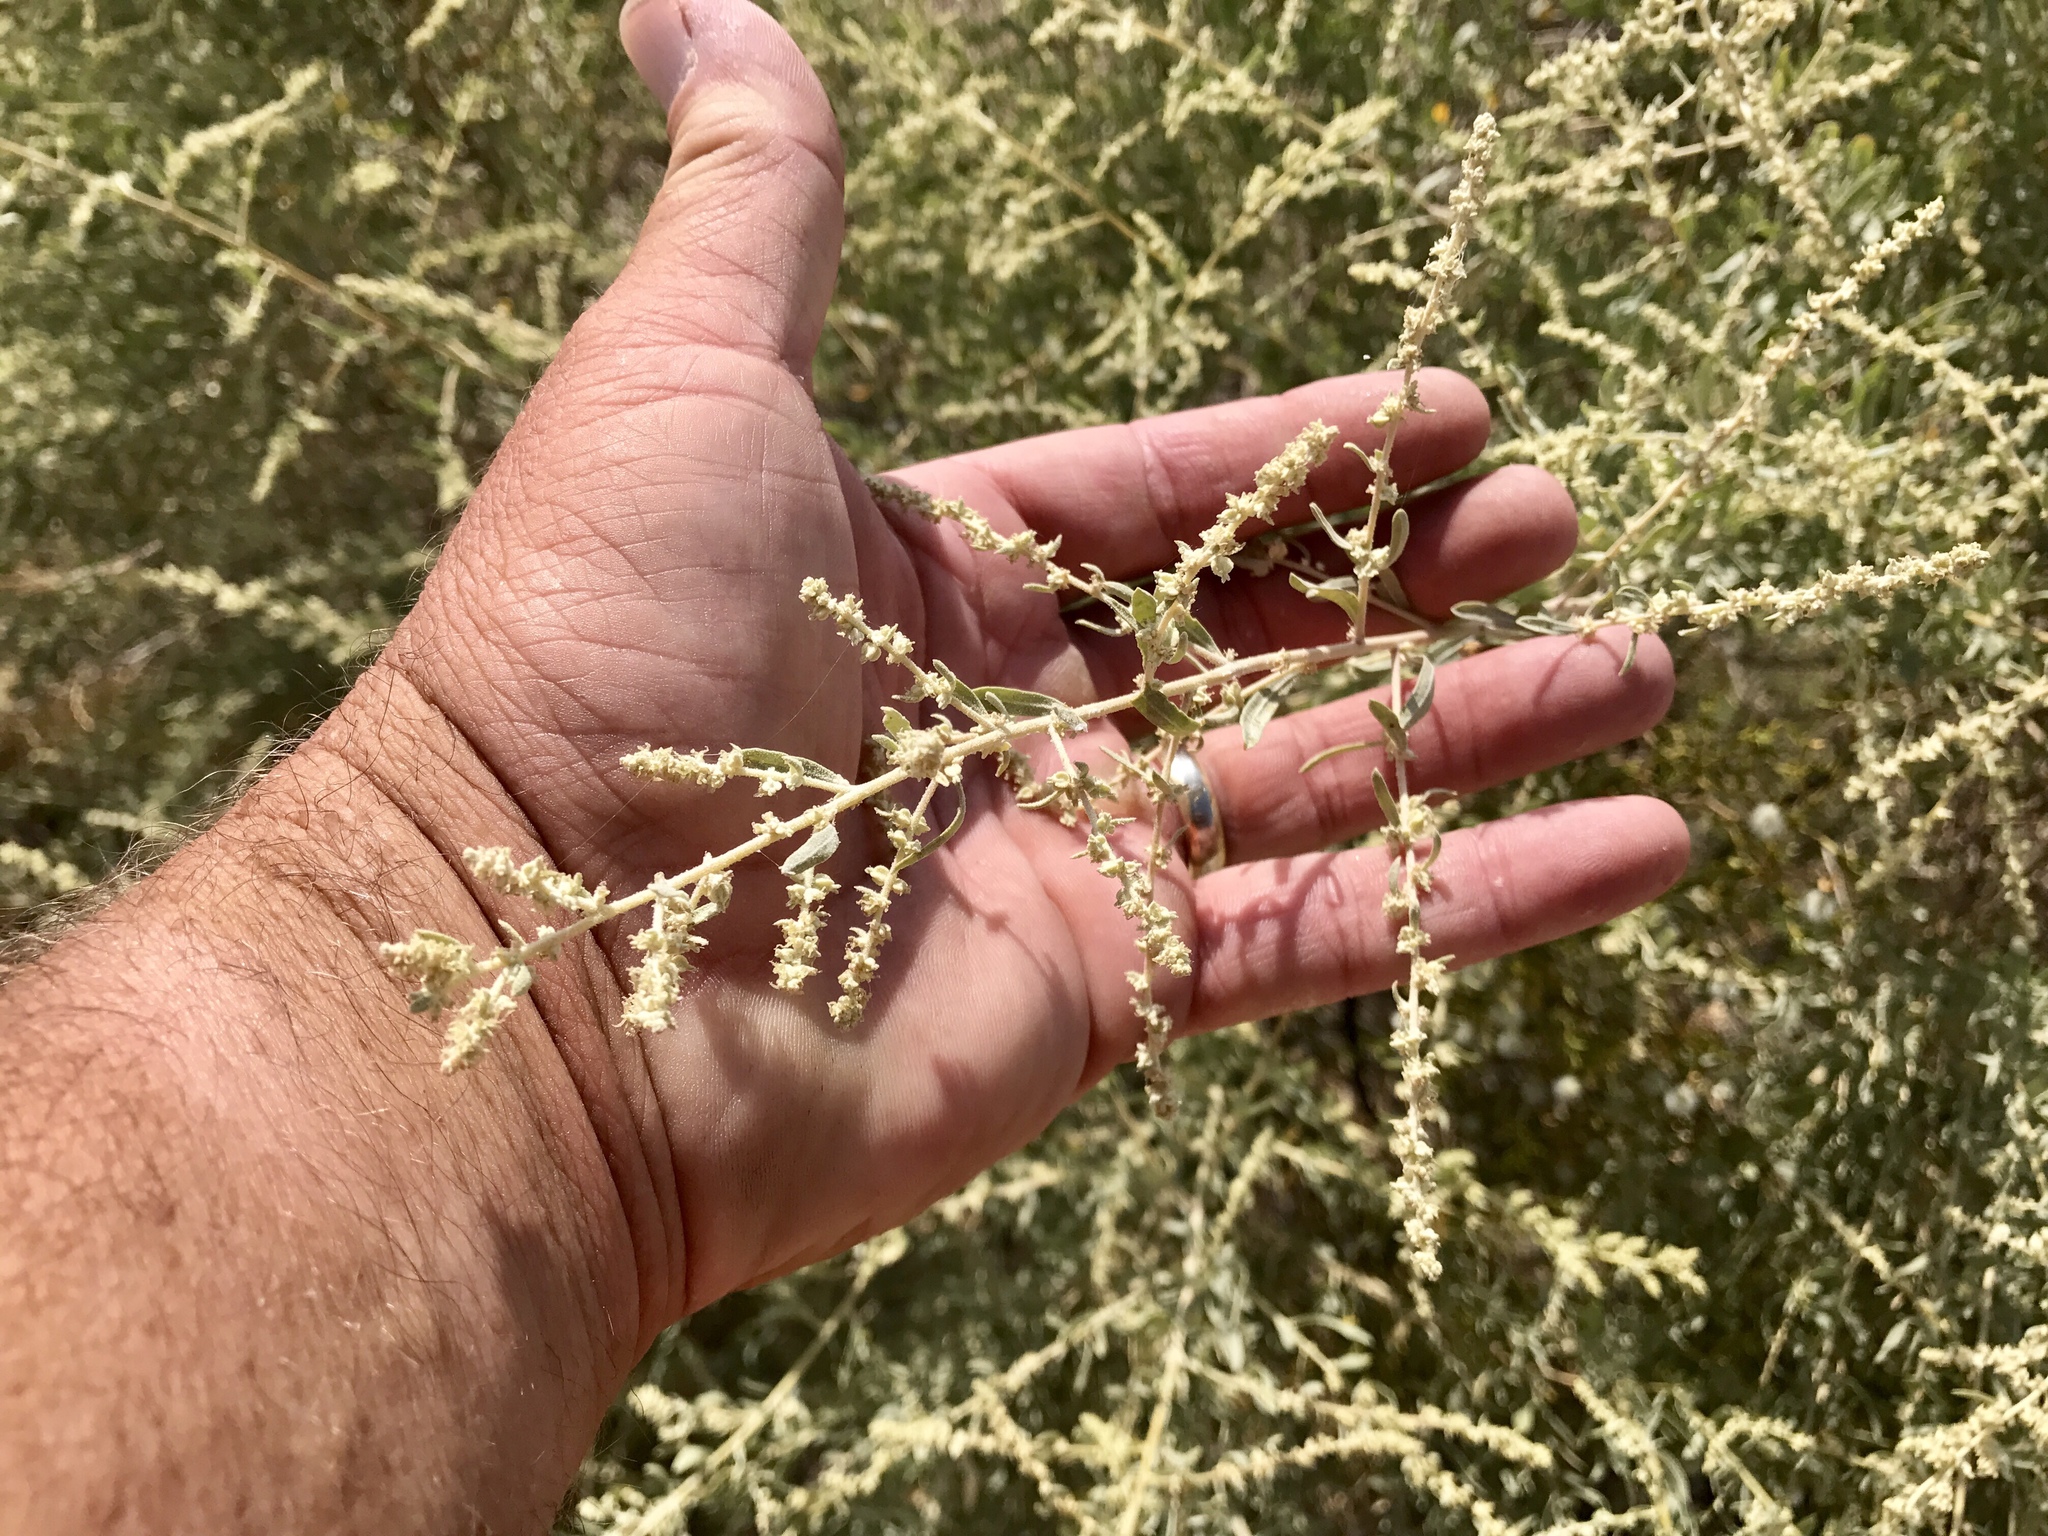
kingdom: Plantae
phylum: Tracheophyta
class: Magnoliopsida
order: Caryophyllales
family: Amaranthaceae
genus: Atriplex
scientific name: Atriplex canescens
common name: Four-wing saltbush
